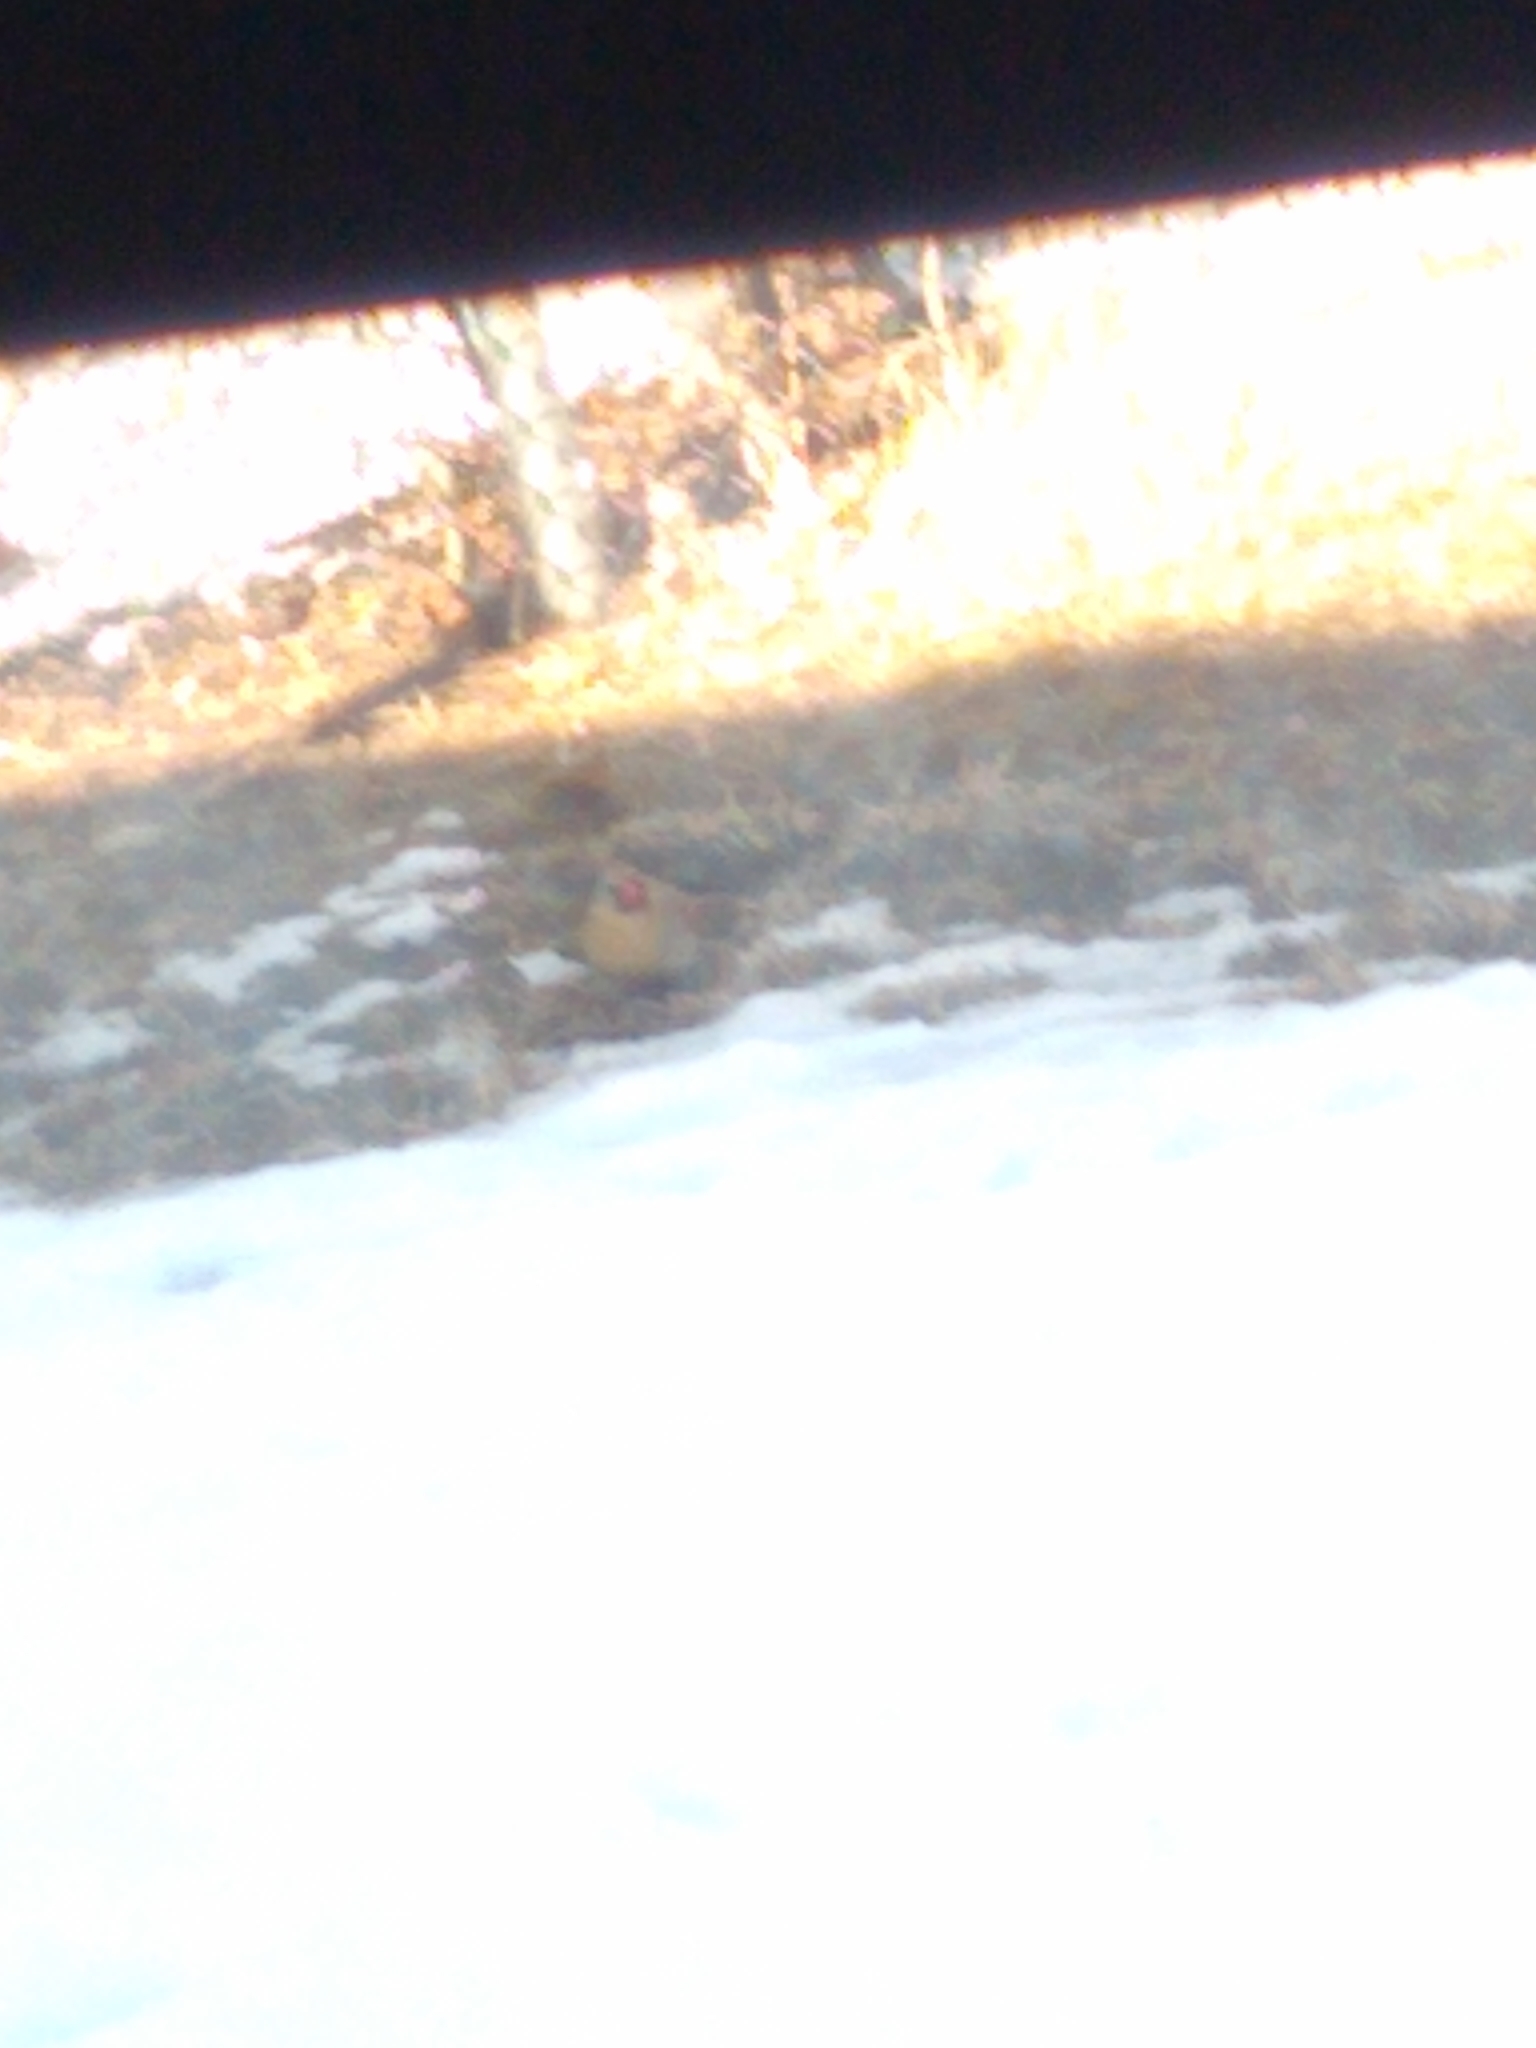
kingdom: Animalia
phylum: Chordata
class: Aves
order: Passeriformes
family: Cardinalidae
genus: Cardinalis
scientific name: Cardinalis cardinalis
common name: Northern cardinal
